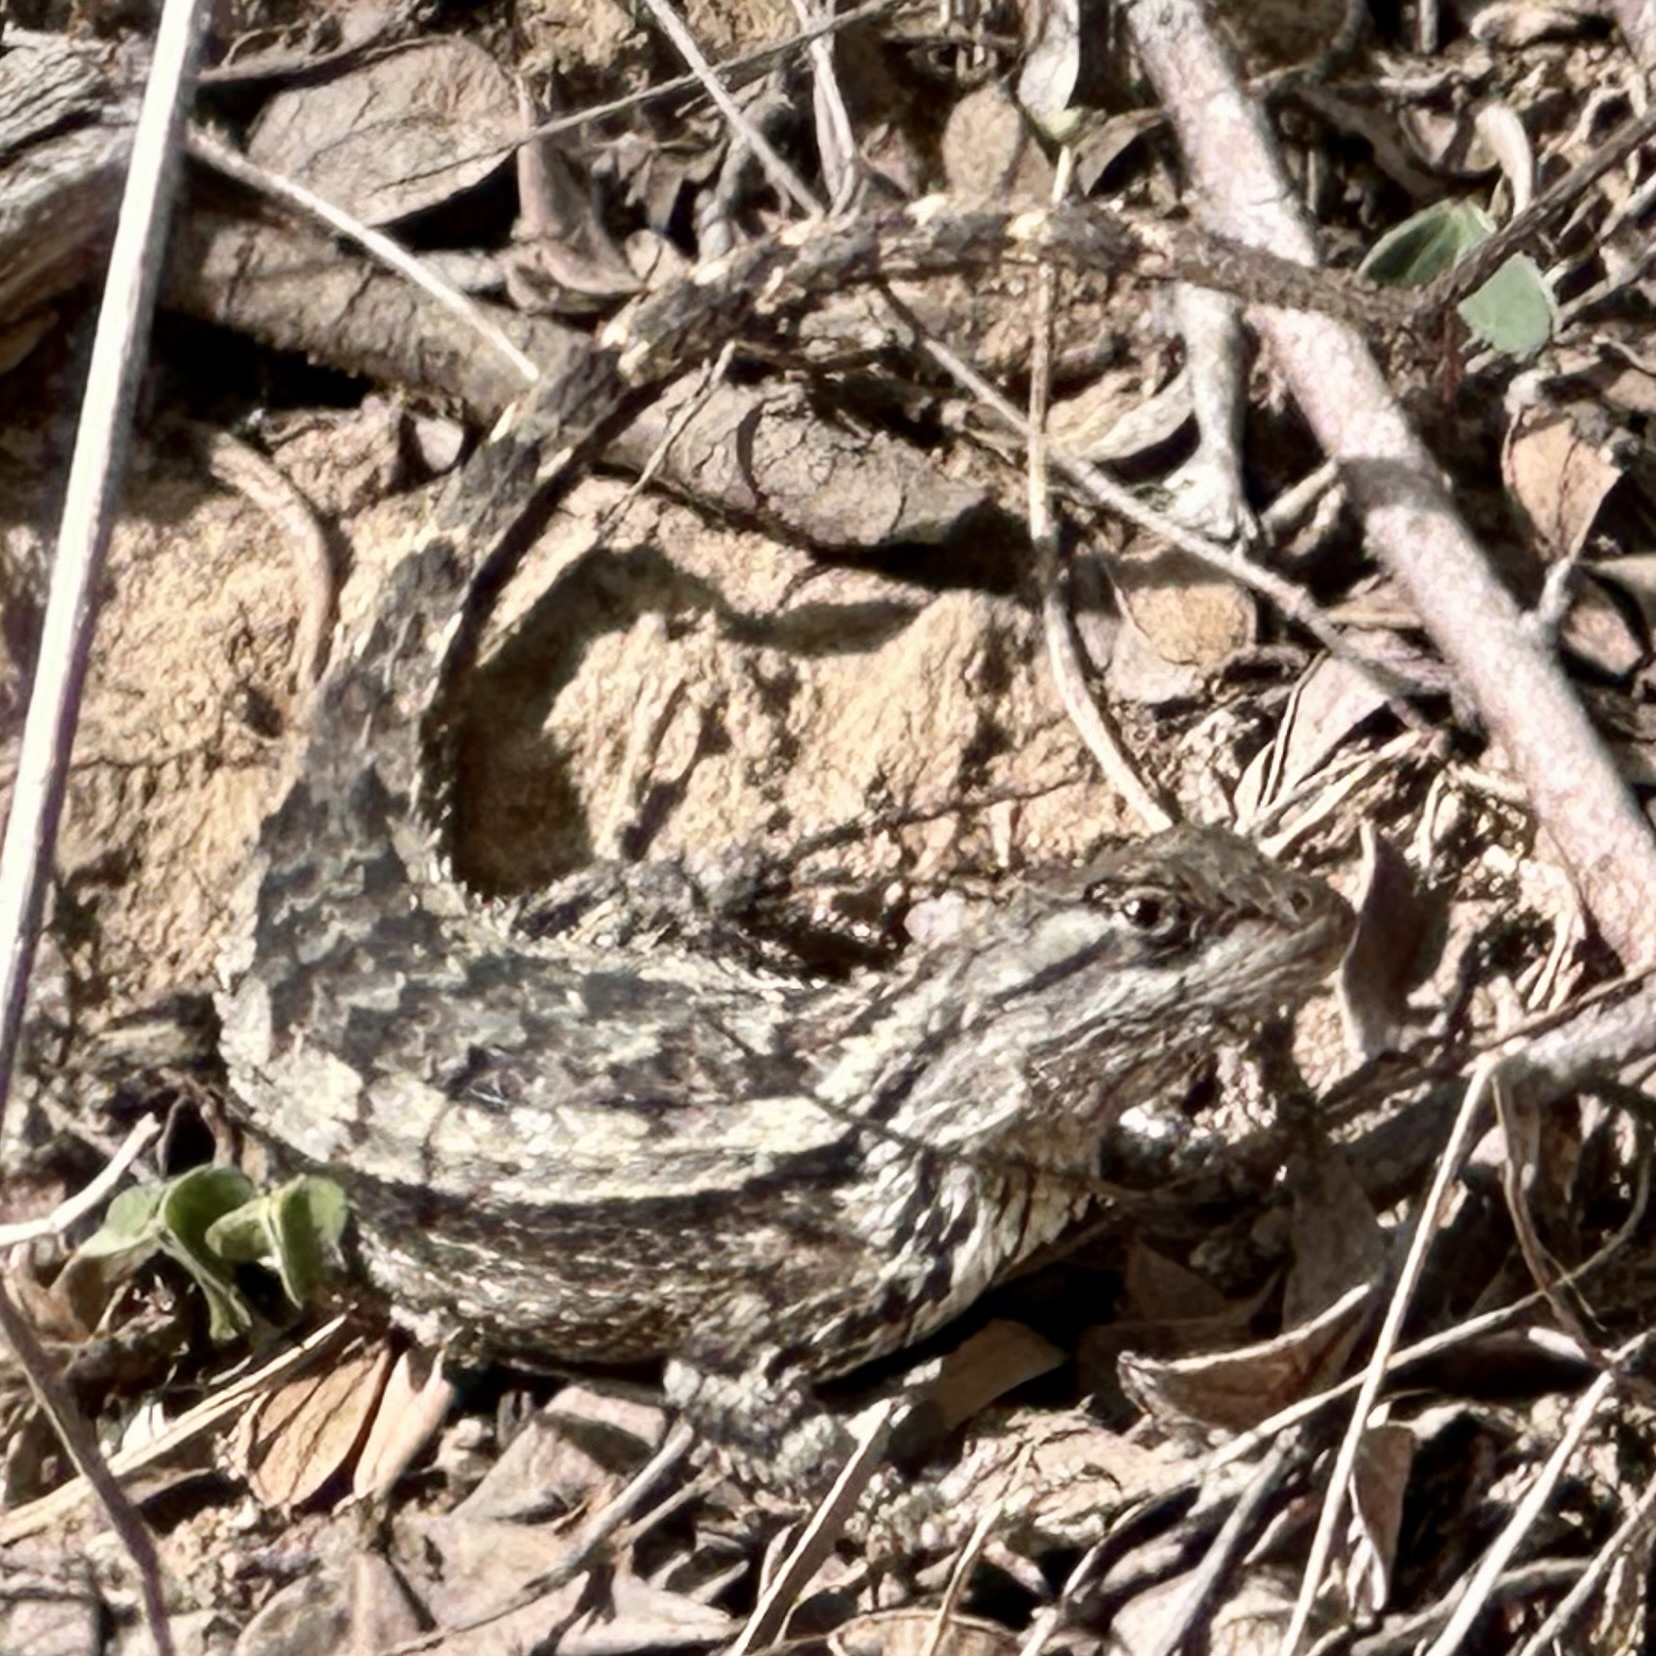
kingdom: Animalia
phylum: Chordata
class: Squamata
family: Phrynosomatidae
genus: Sceloporus
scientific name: Sceloporus olivaceus
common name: Texas spiny lizard
